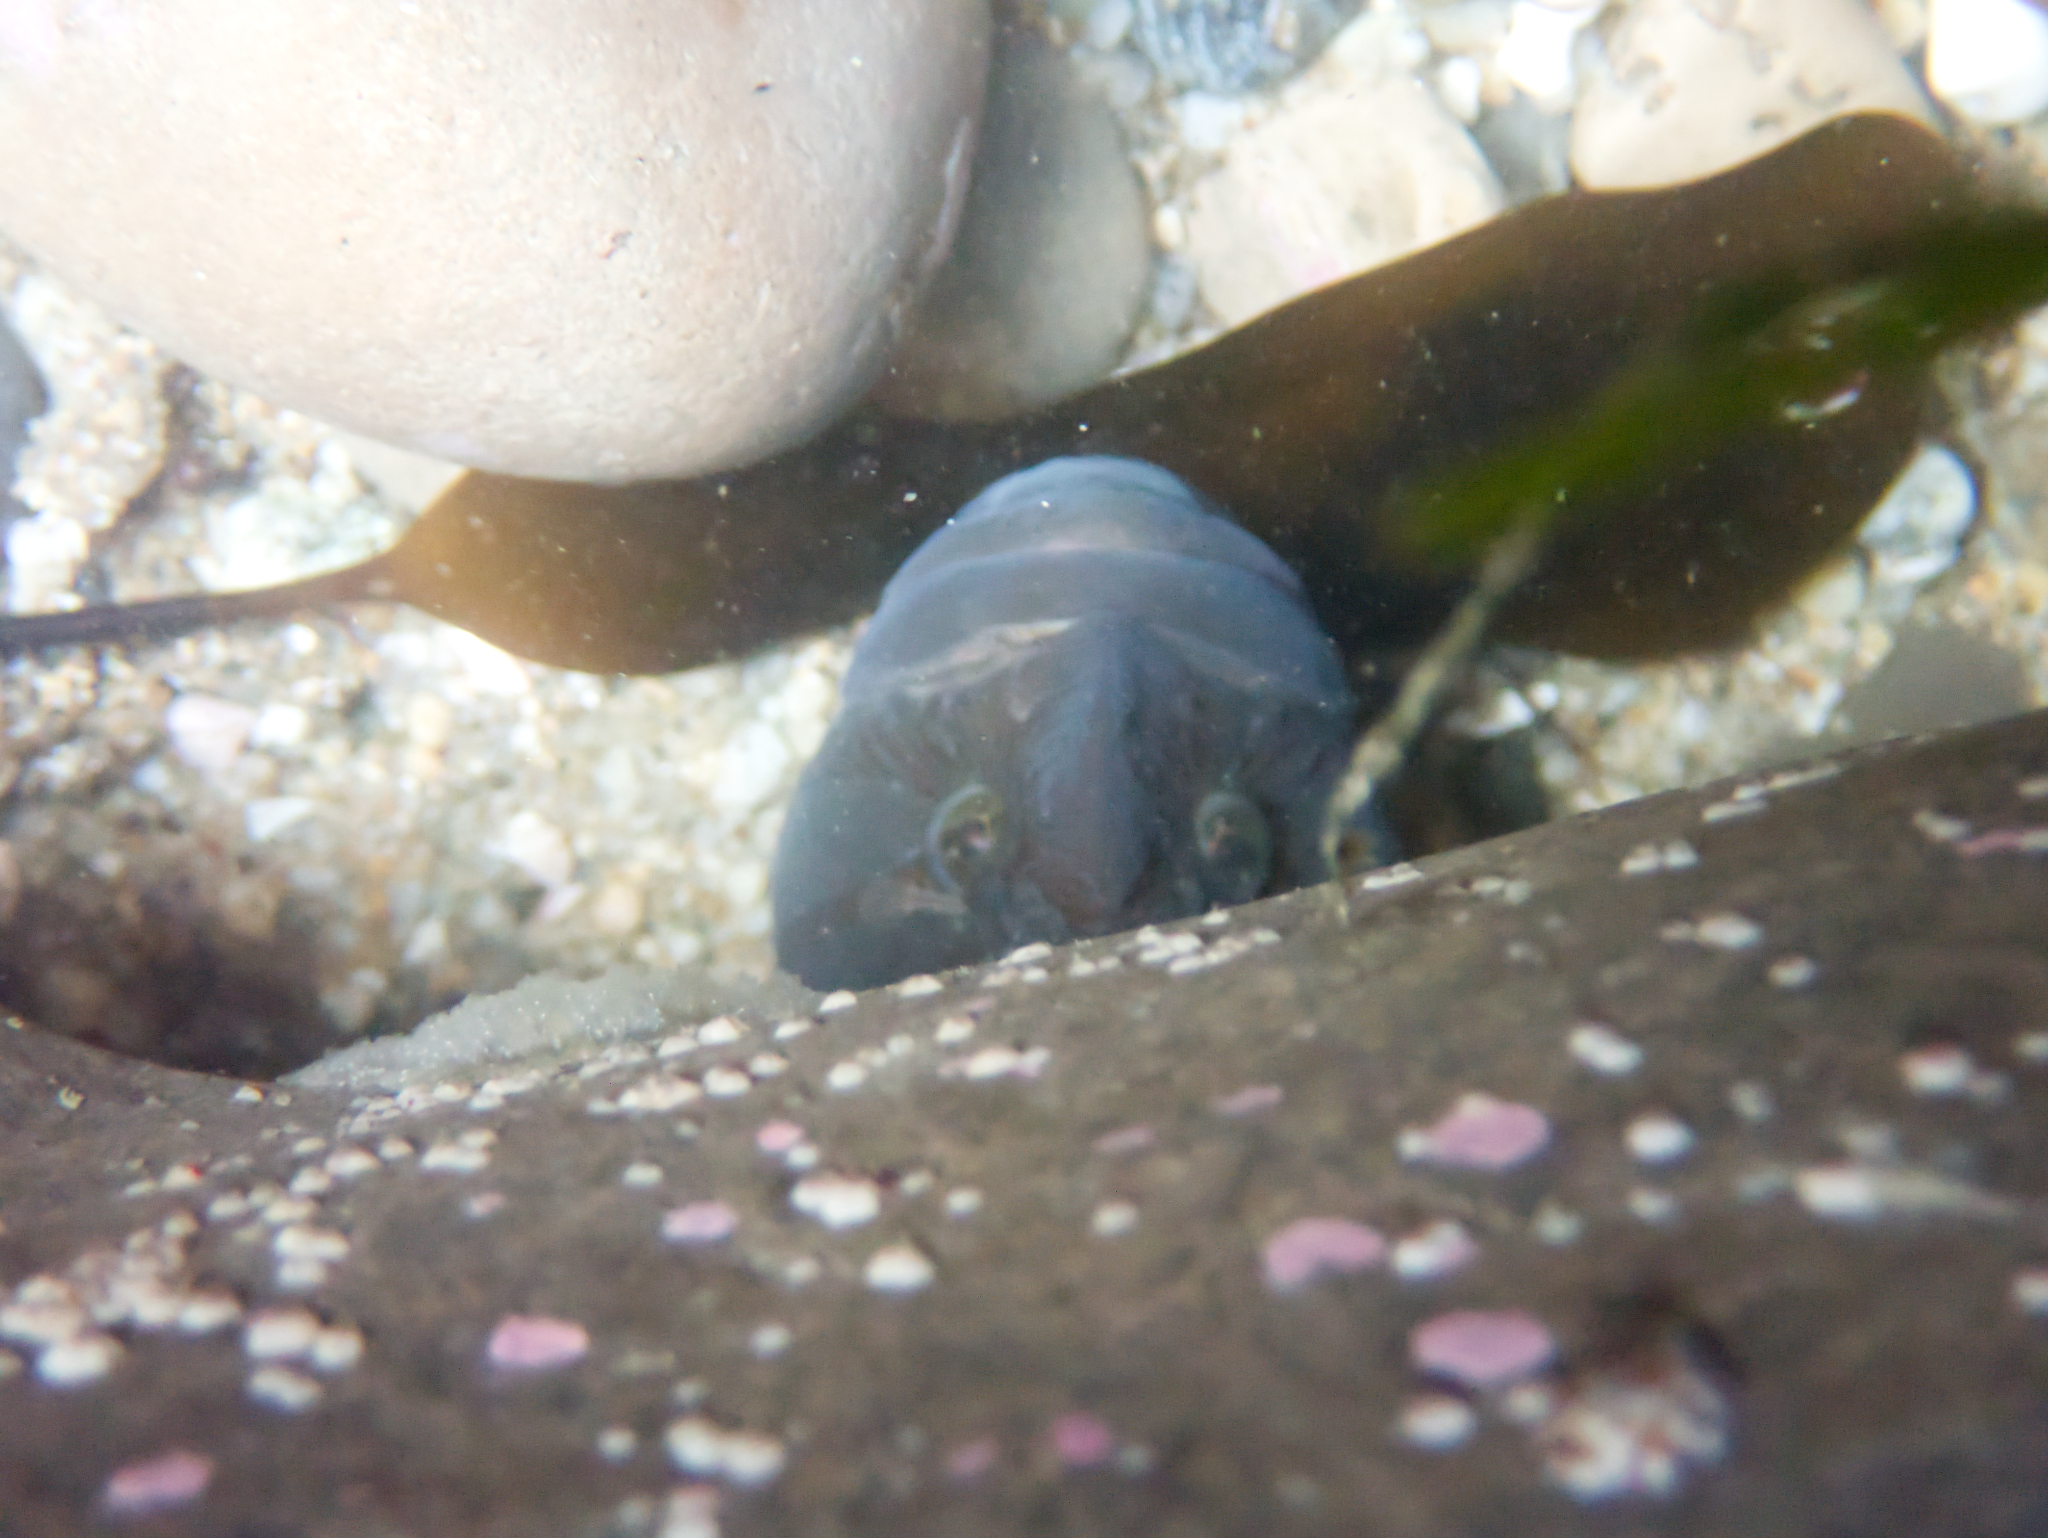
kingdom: Animalia
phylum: Chordata
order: Perciformes
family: Stichaeidae
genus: Cebidichthys
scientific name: Cebidichthys violaceus
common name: Monkeyface prickleback
